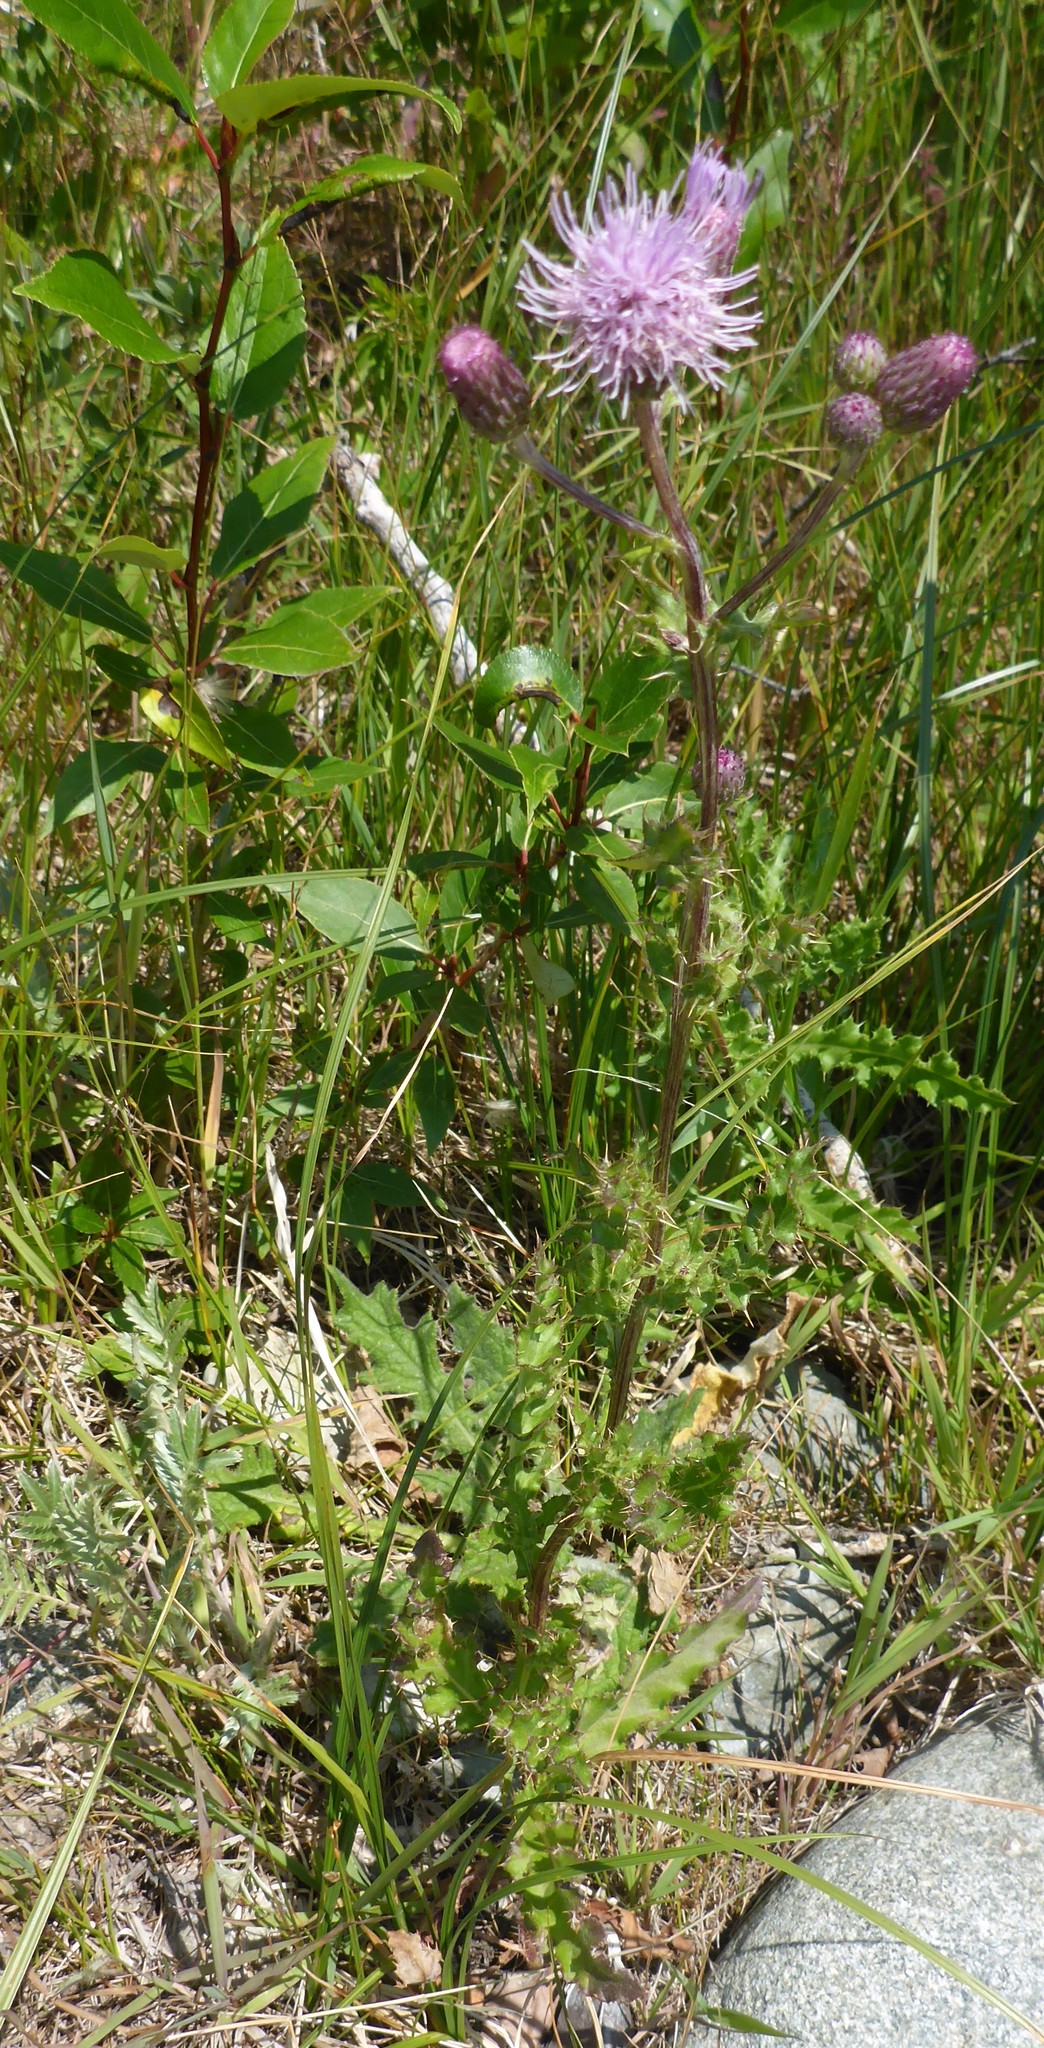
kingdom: Plantae
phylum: Tracheophyta
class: Magnoliopsida
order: Asterales
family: Asteraceae
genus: Cirsium
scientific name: Cirsium arvense
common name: Creeping thistle
